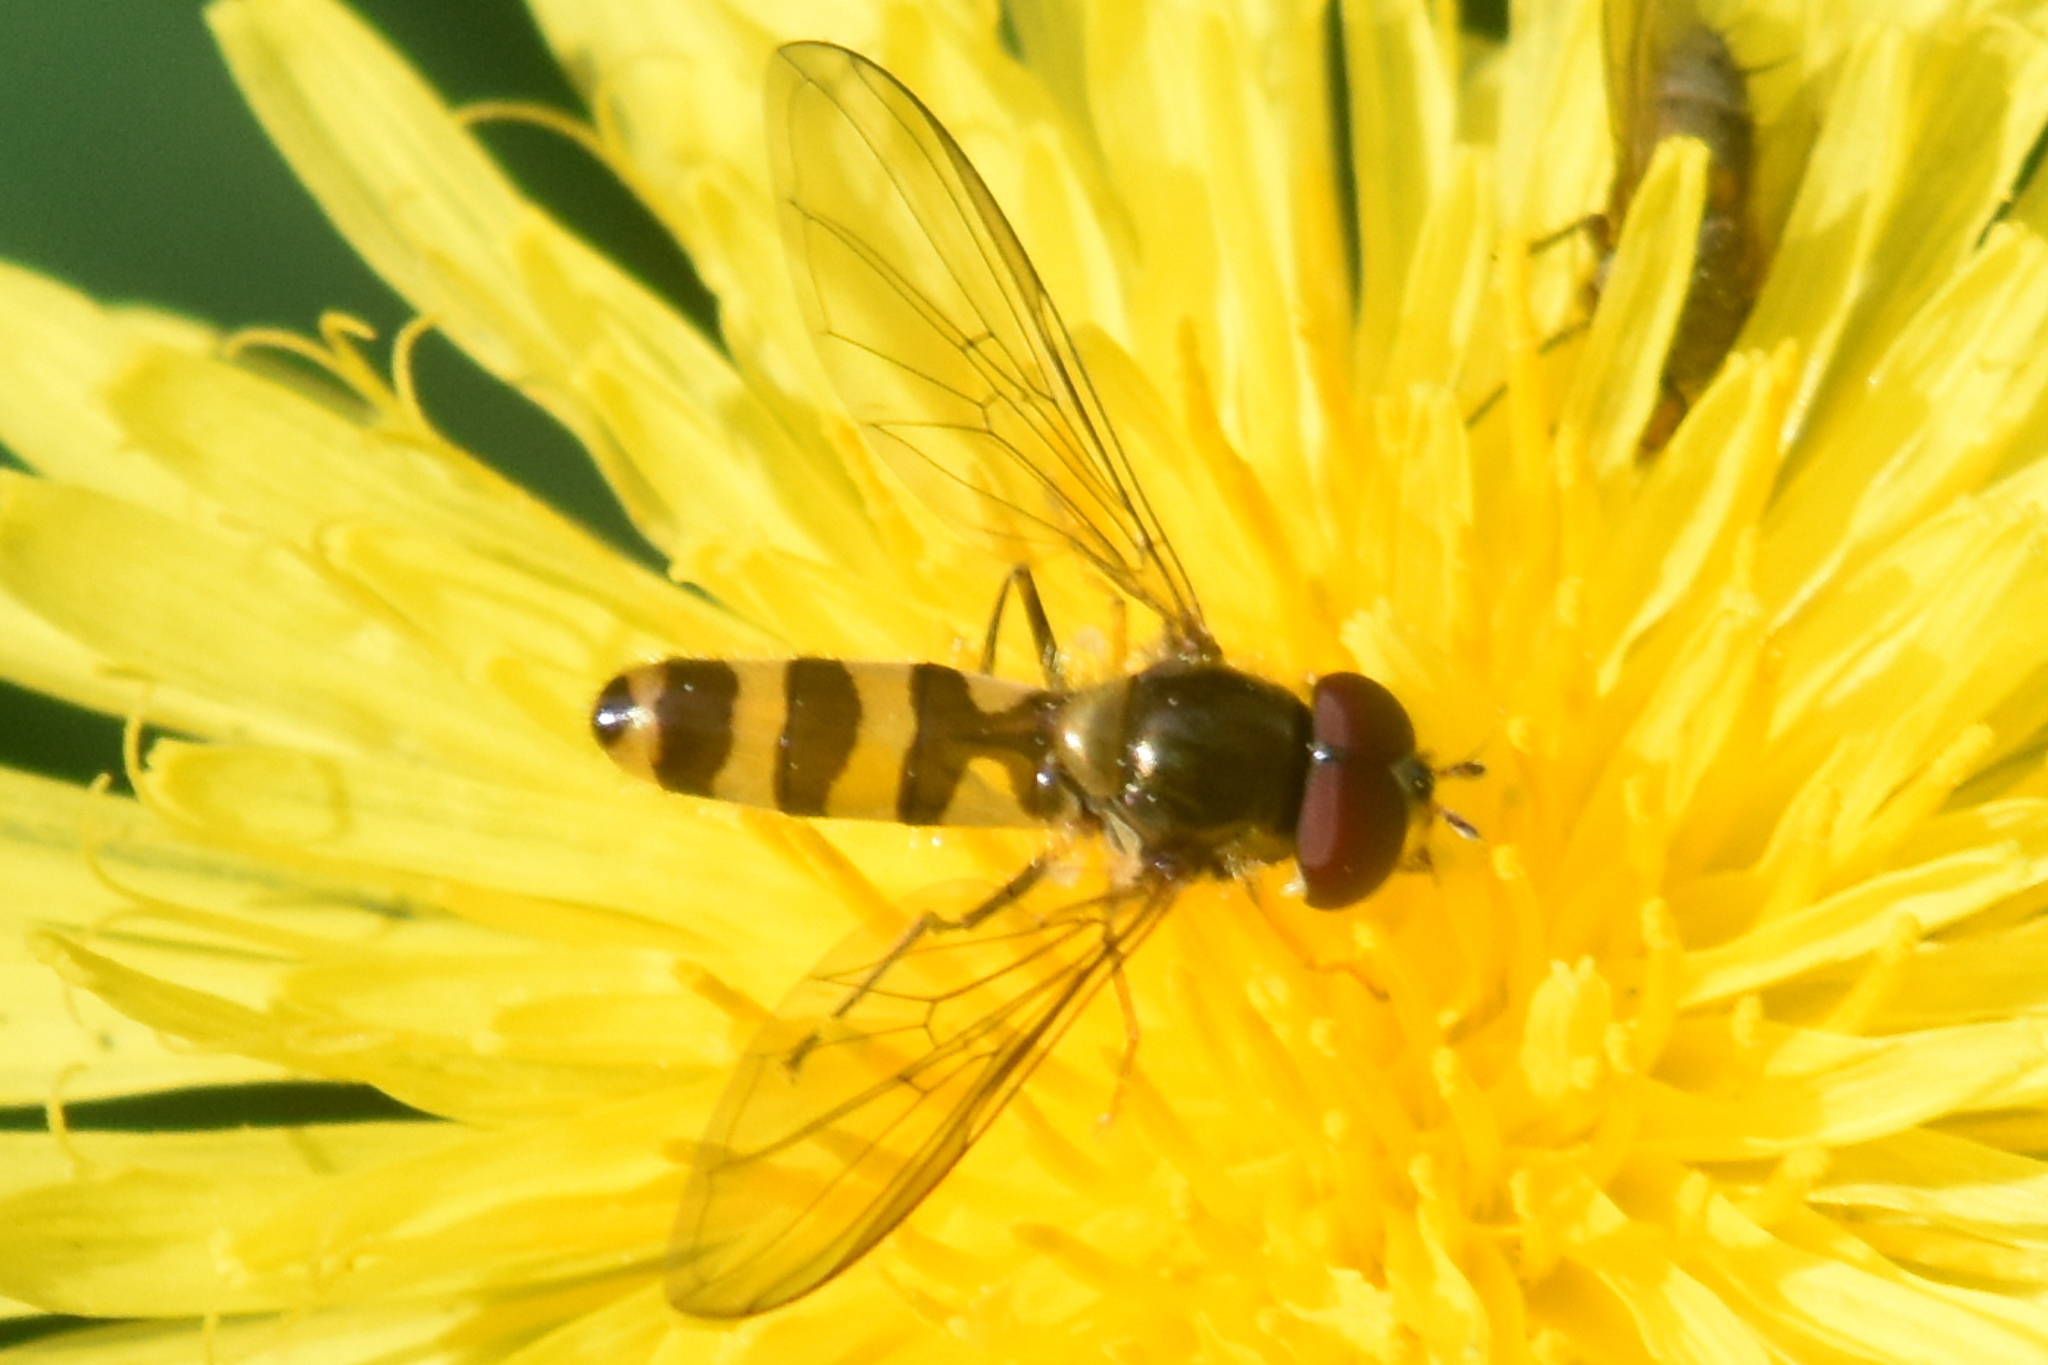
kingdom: Animalia
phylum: Arthropoda
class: Insecta
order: Diptera
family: Syrphidae
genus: Meliscaeva
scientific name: Meliscaeva cinctella
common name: American thintail fly
